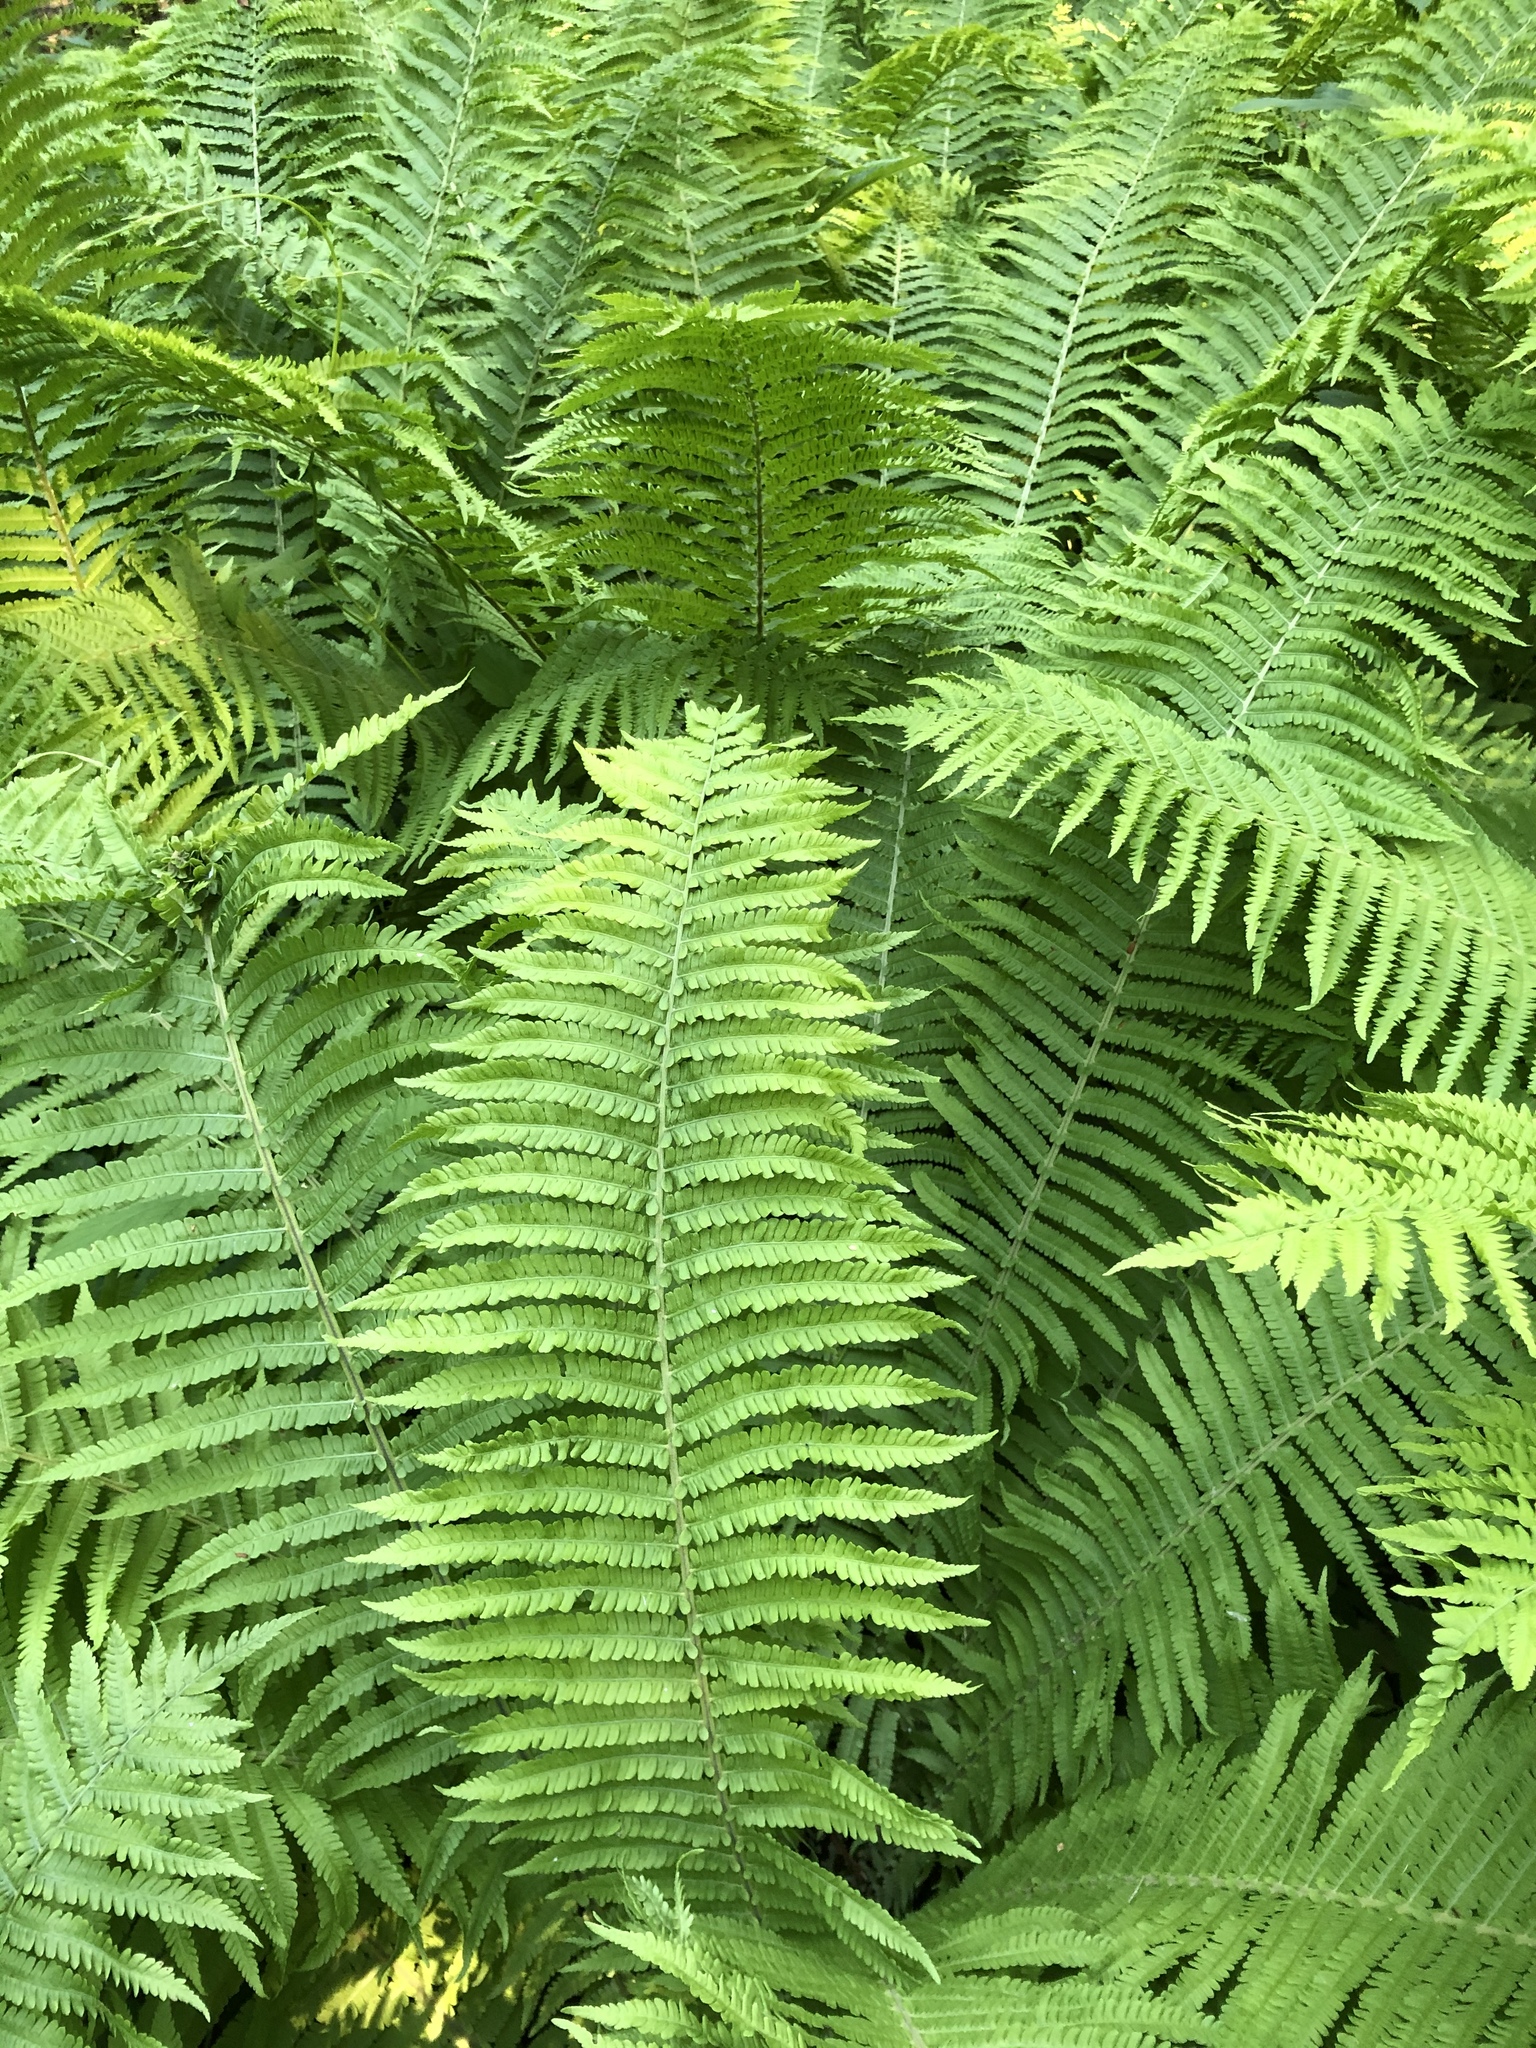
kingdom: Plantae
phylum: Tracheophyta
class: Polypodiopsida
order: Polypodiales
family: Onocleaceae
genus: Matteuccia
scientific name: Matteuccia struthiopteris
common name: Ostrich fern
